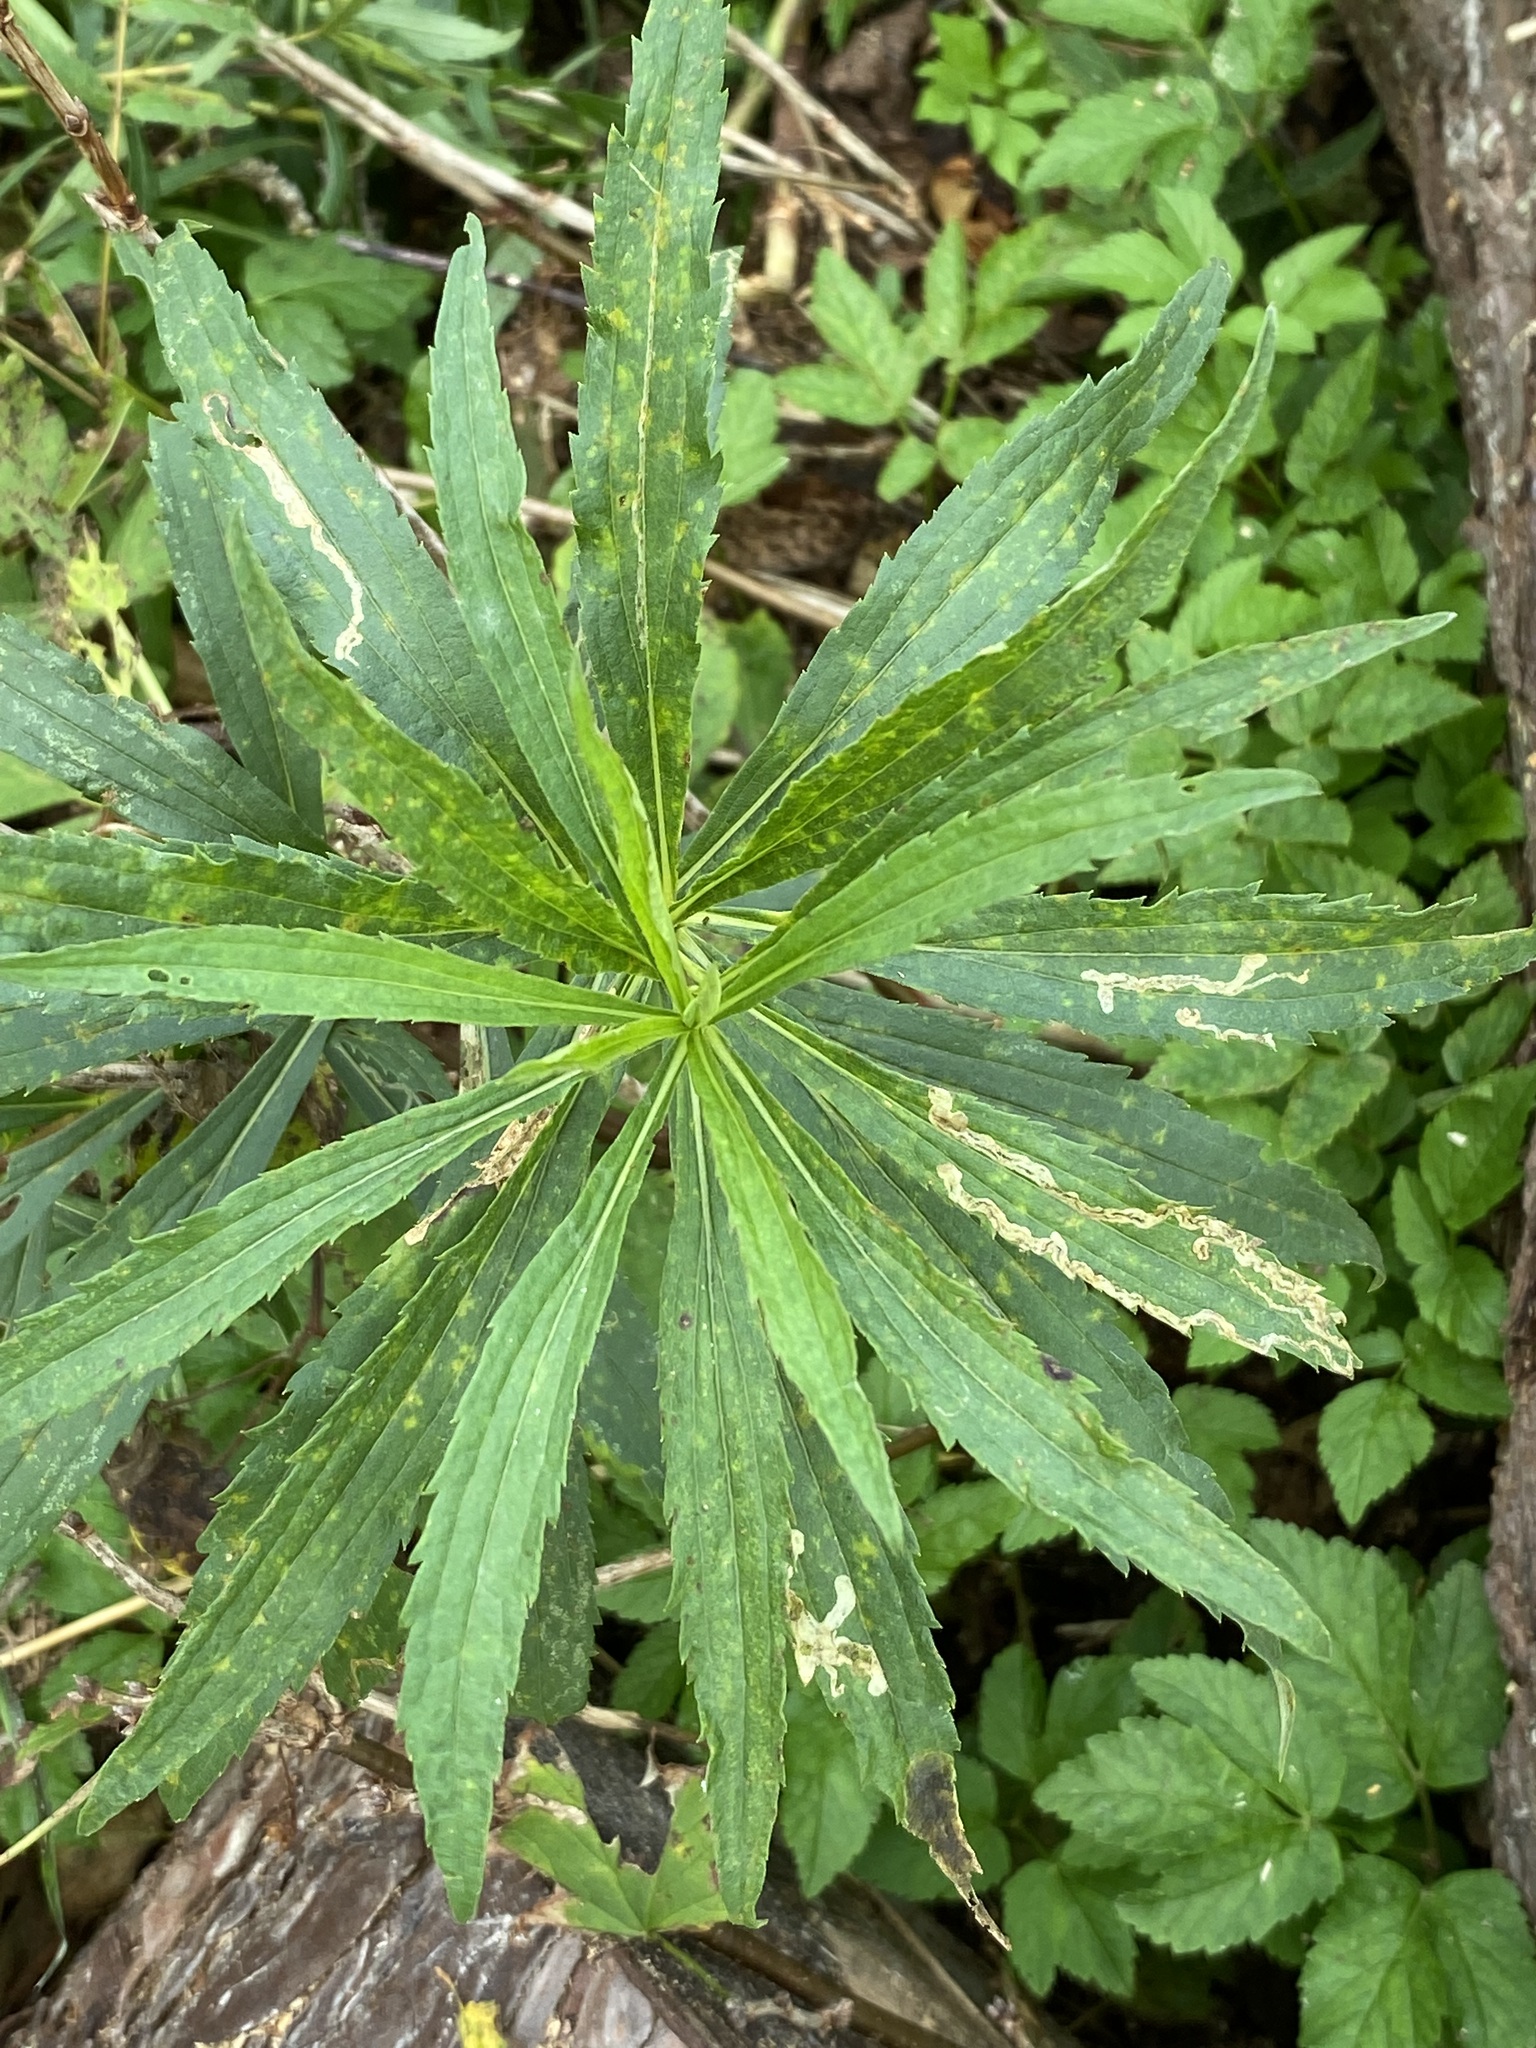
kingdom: Animalia
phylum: Arthropoda
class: Insecta
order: Diptera
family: Agromyzidae
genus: Liriomyza
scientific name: Liriomyza eupatorii
